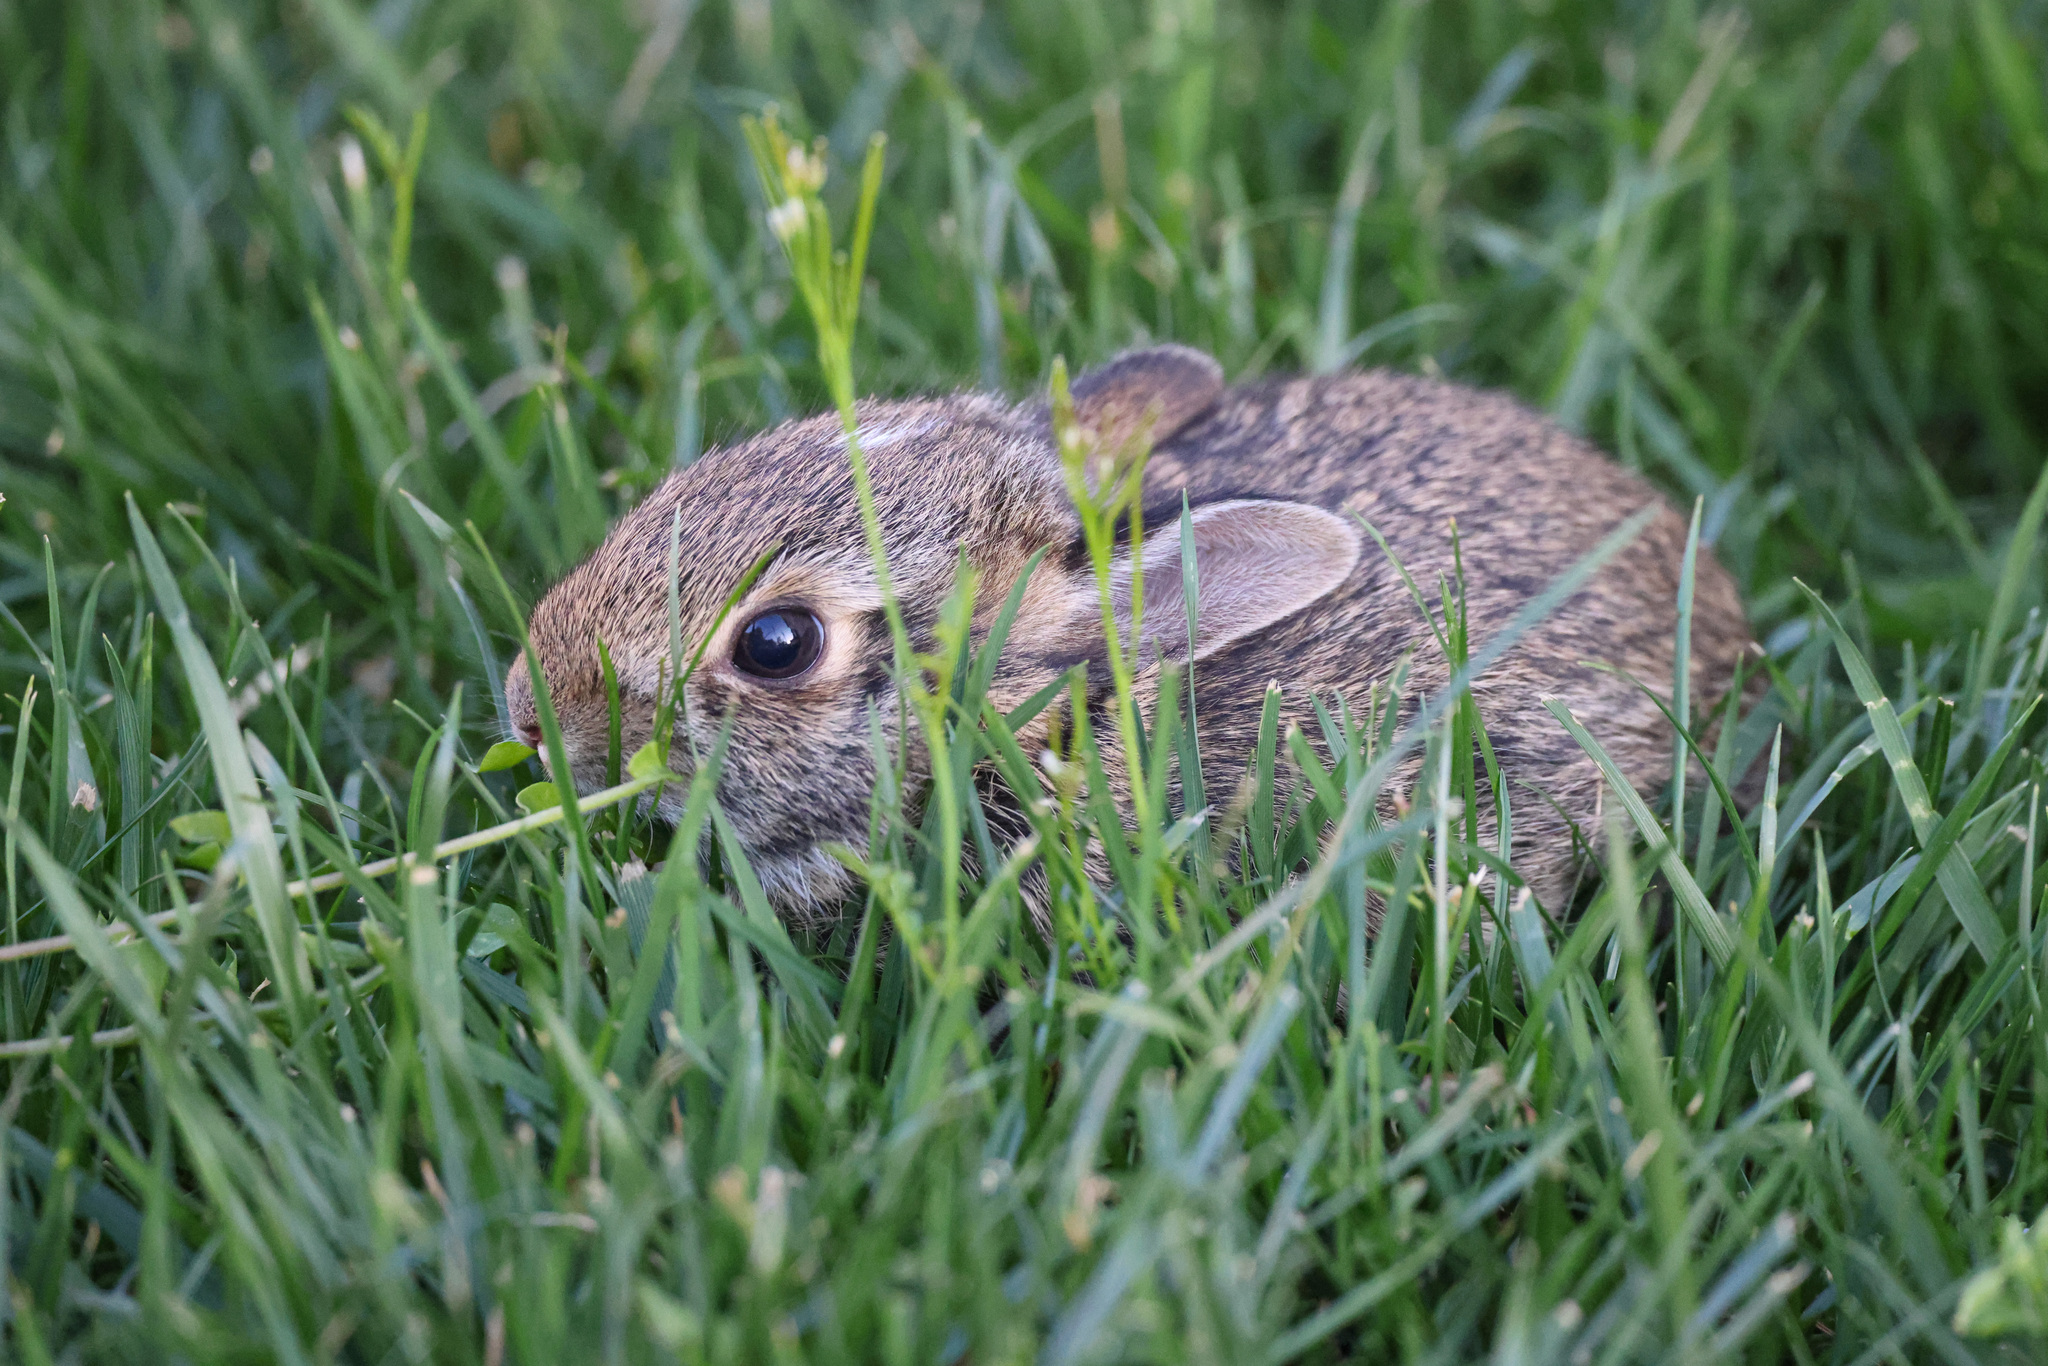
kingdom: Animalia
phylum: Chordata
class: Mammalia
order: Lagomorpha
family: Leporidae
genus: Sylvilagus
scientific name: Sylvilagus floridanus
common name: Eastern cottontail
